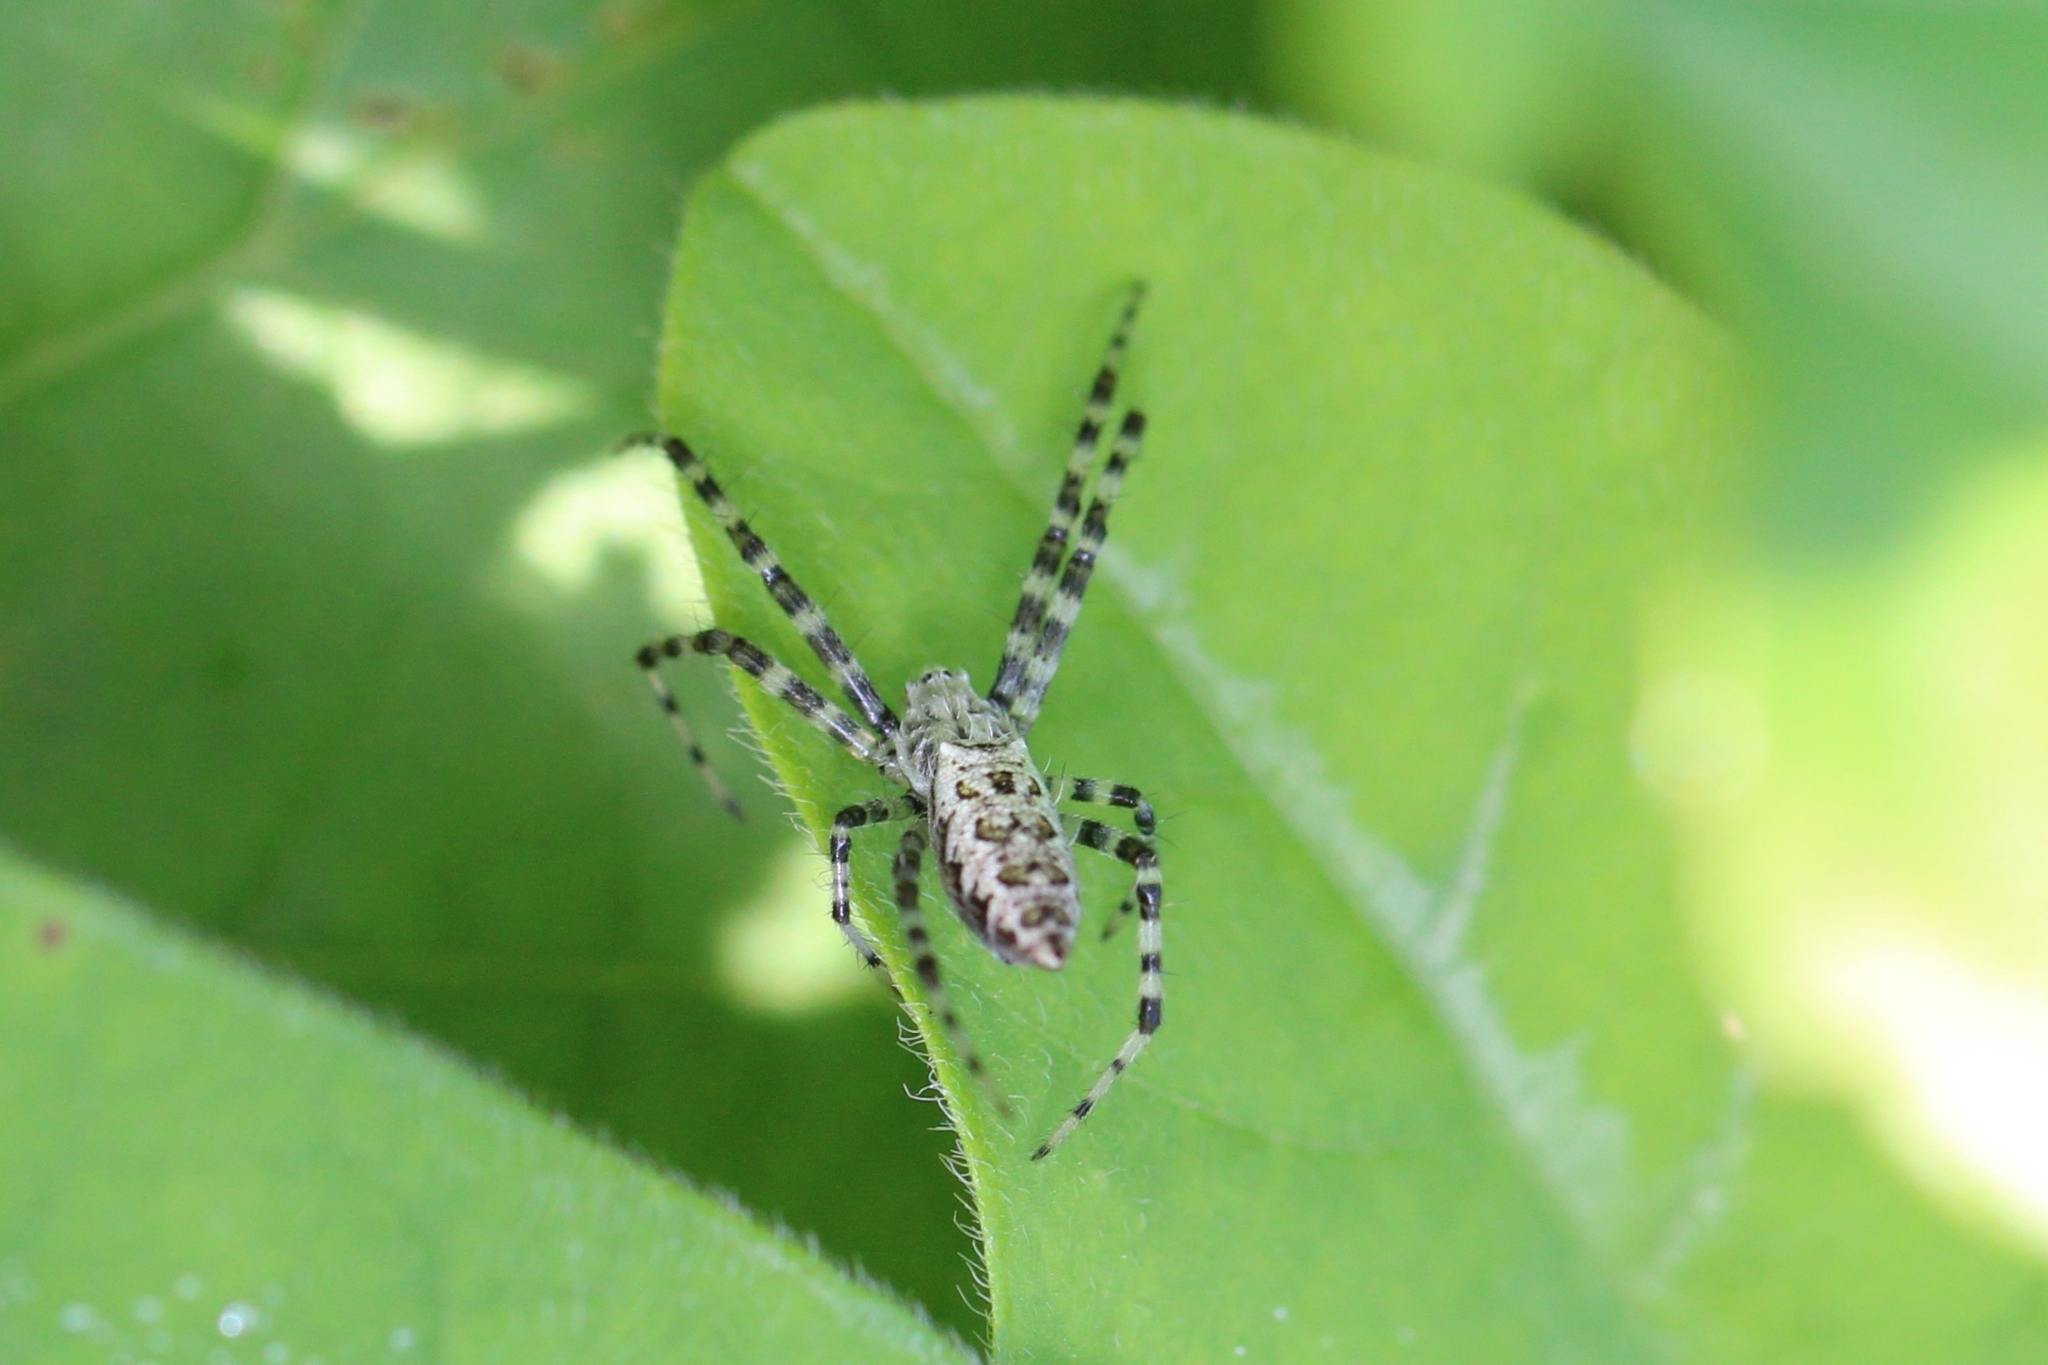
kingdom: Animalia
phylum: Arthropoda
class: Arachnida
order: Araneae
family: Araneidae
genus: Argiope
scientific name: Argiope aurantia
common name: Orb weavers
